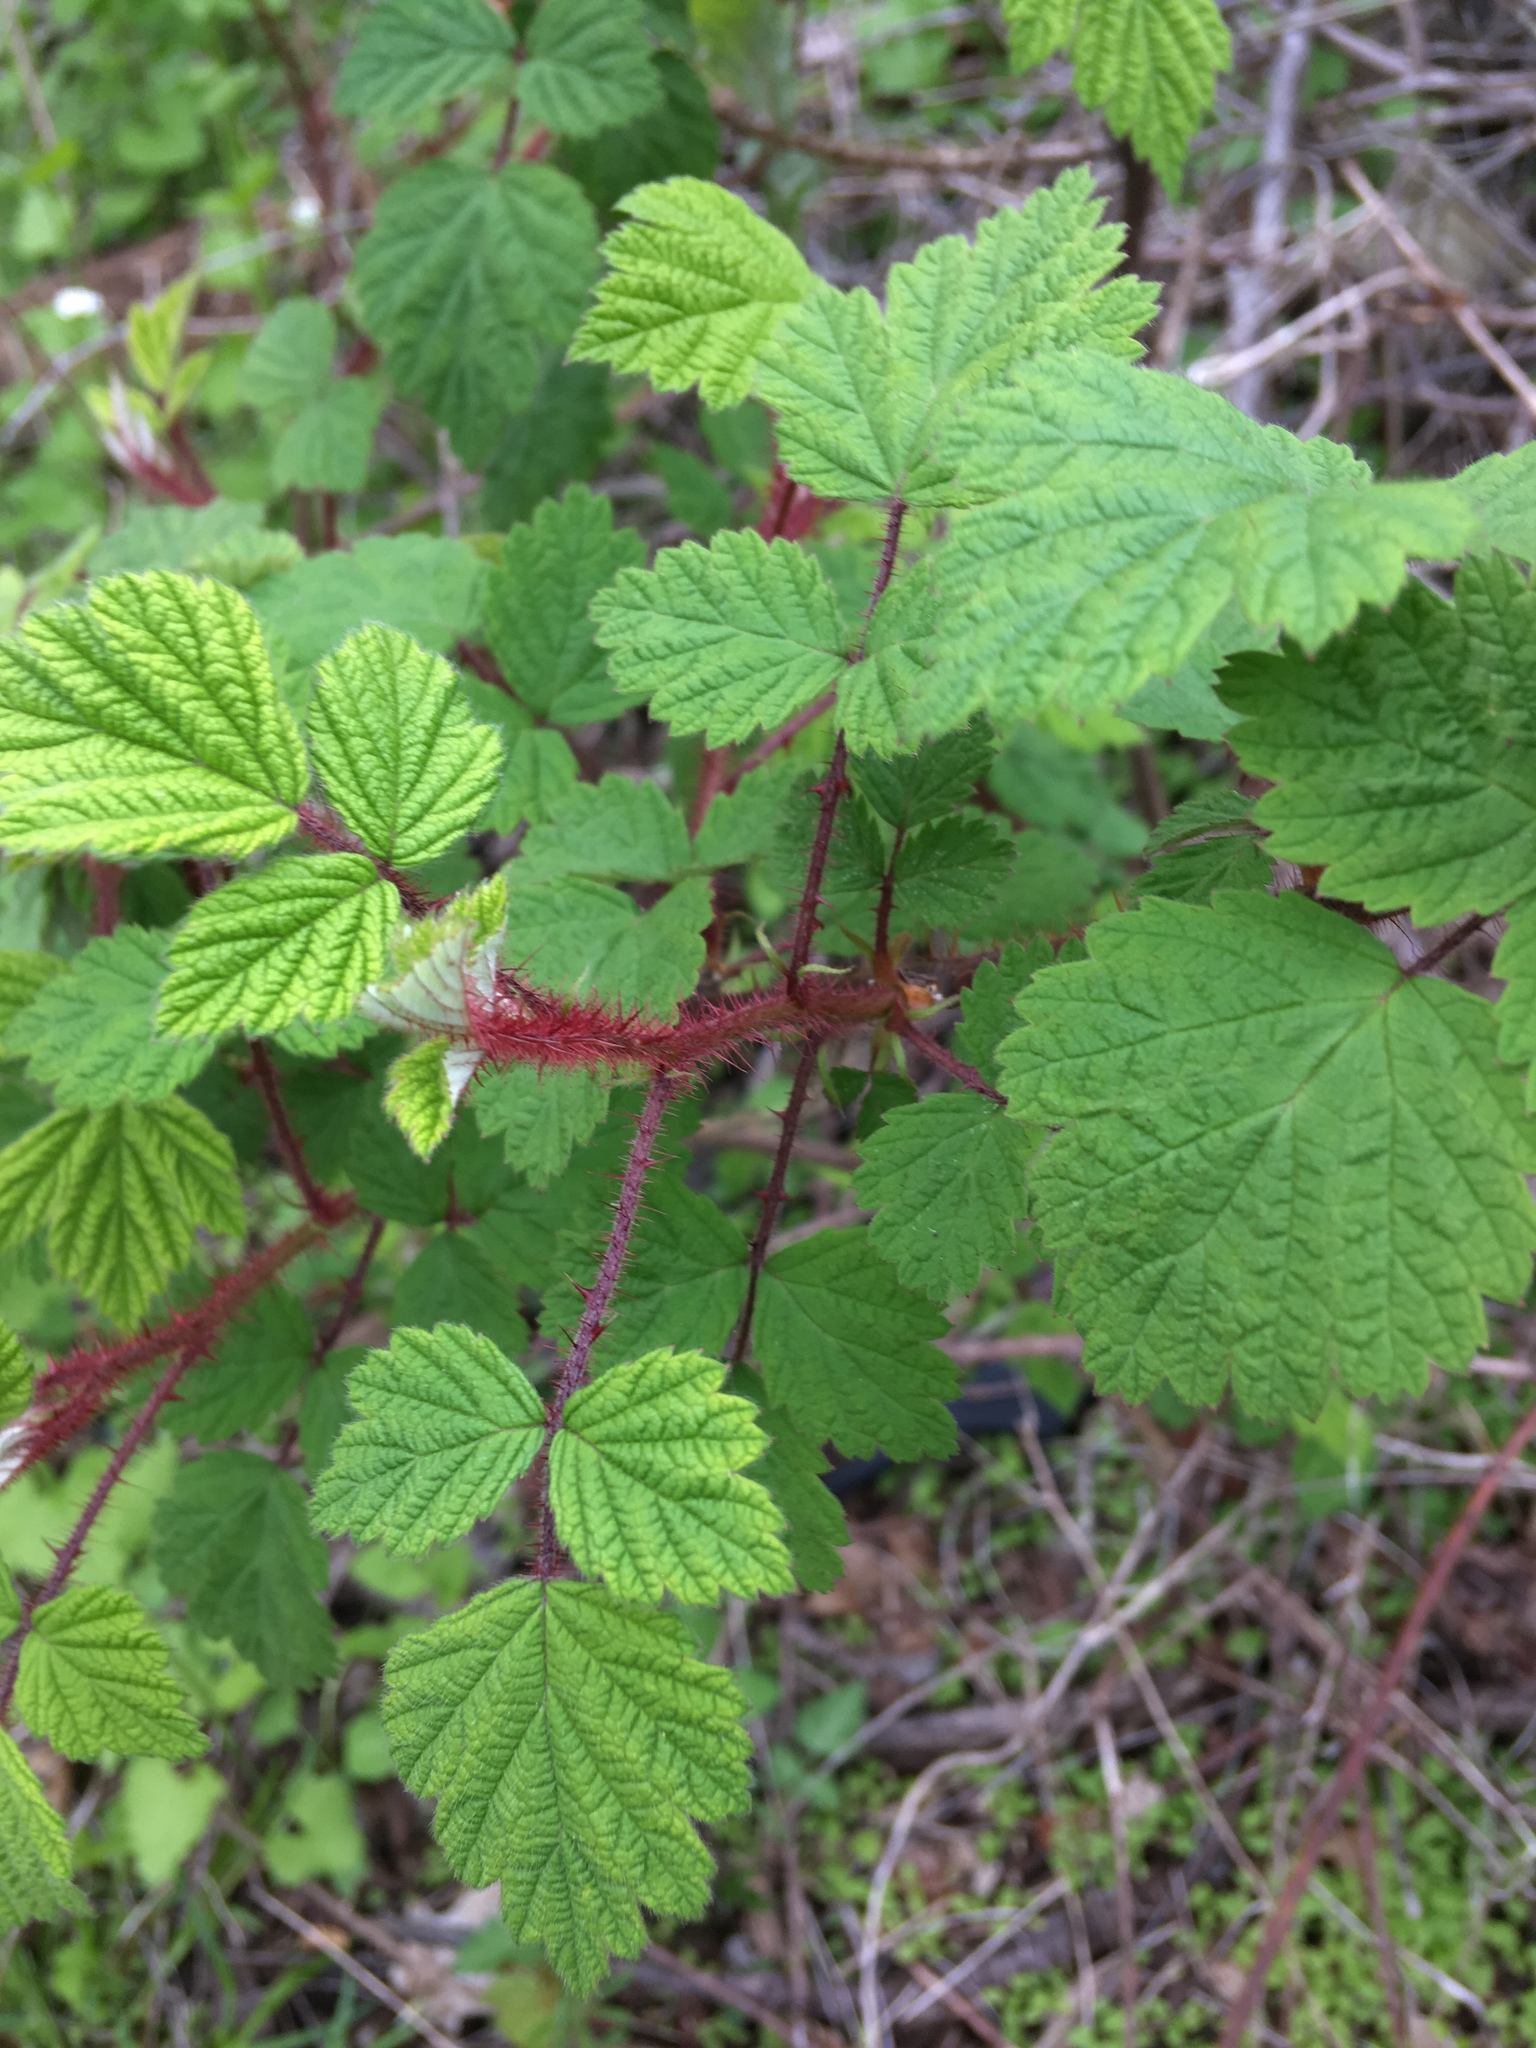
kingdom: Plantae
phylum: Tracheophyta
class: Magnoliopsida
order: Rosales
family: Rosaceae
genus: Rubus
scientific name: Rubus phoenicolasius
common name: Japanese wineberry
